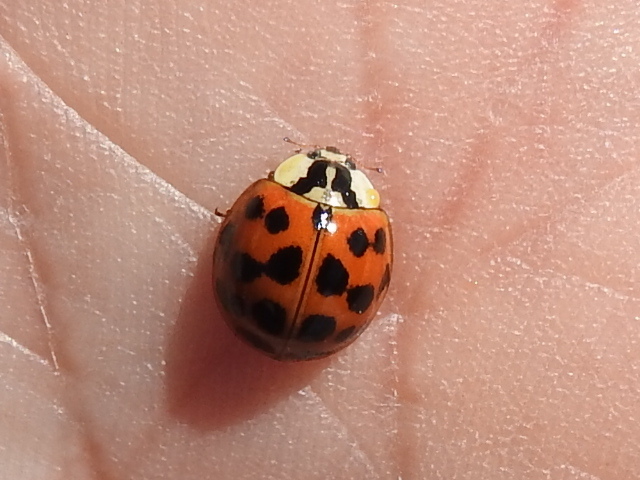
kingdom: Animalia
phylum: Arthropoda
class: Insecta
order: Coleoptera
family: Coccinellidae
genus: Harmonia
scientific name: Harmonia axyridis
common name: Harlequin ladybird
